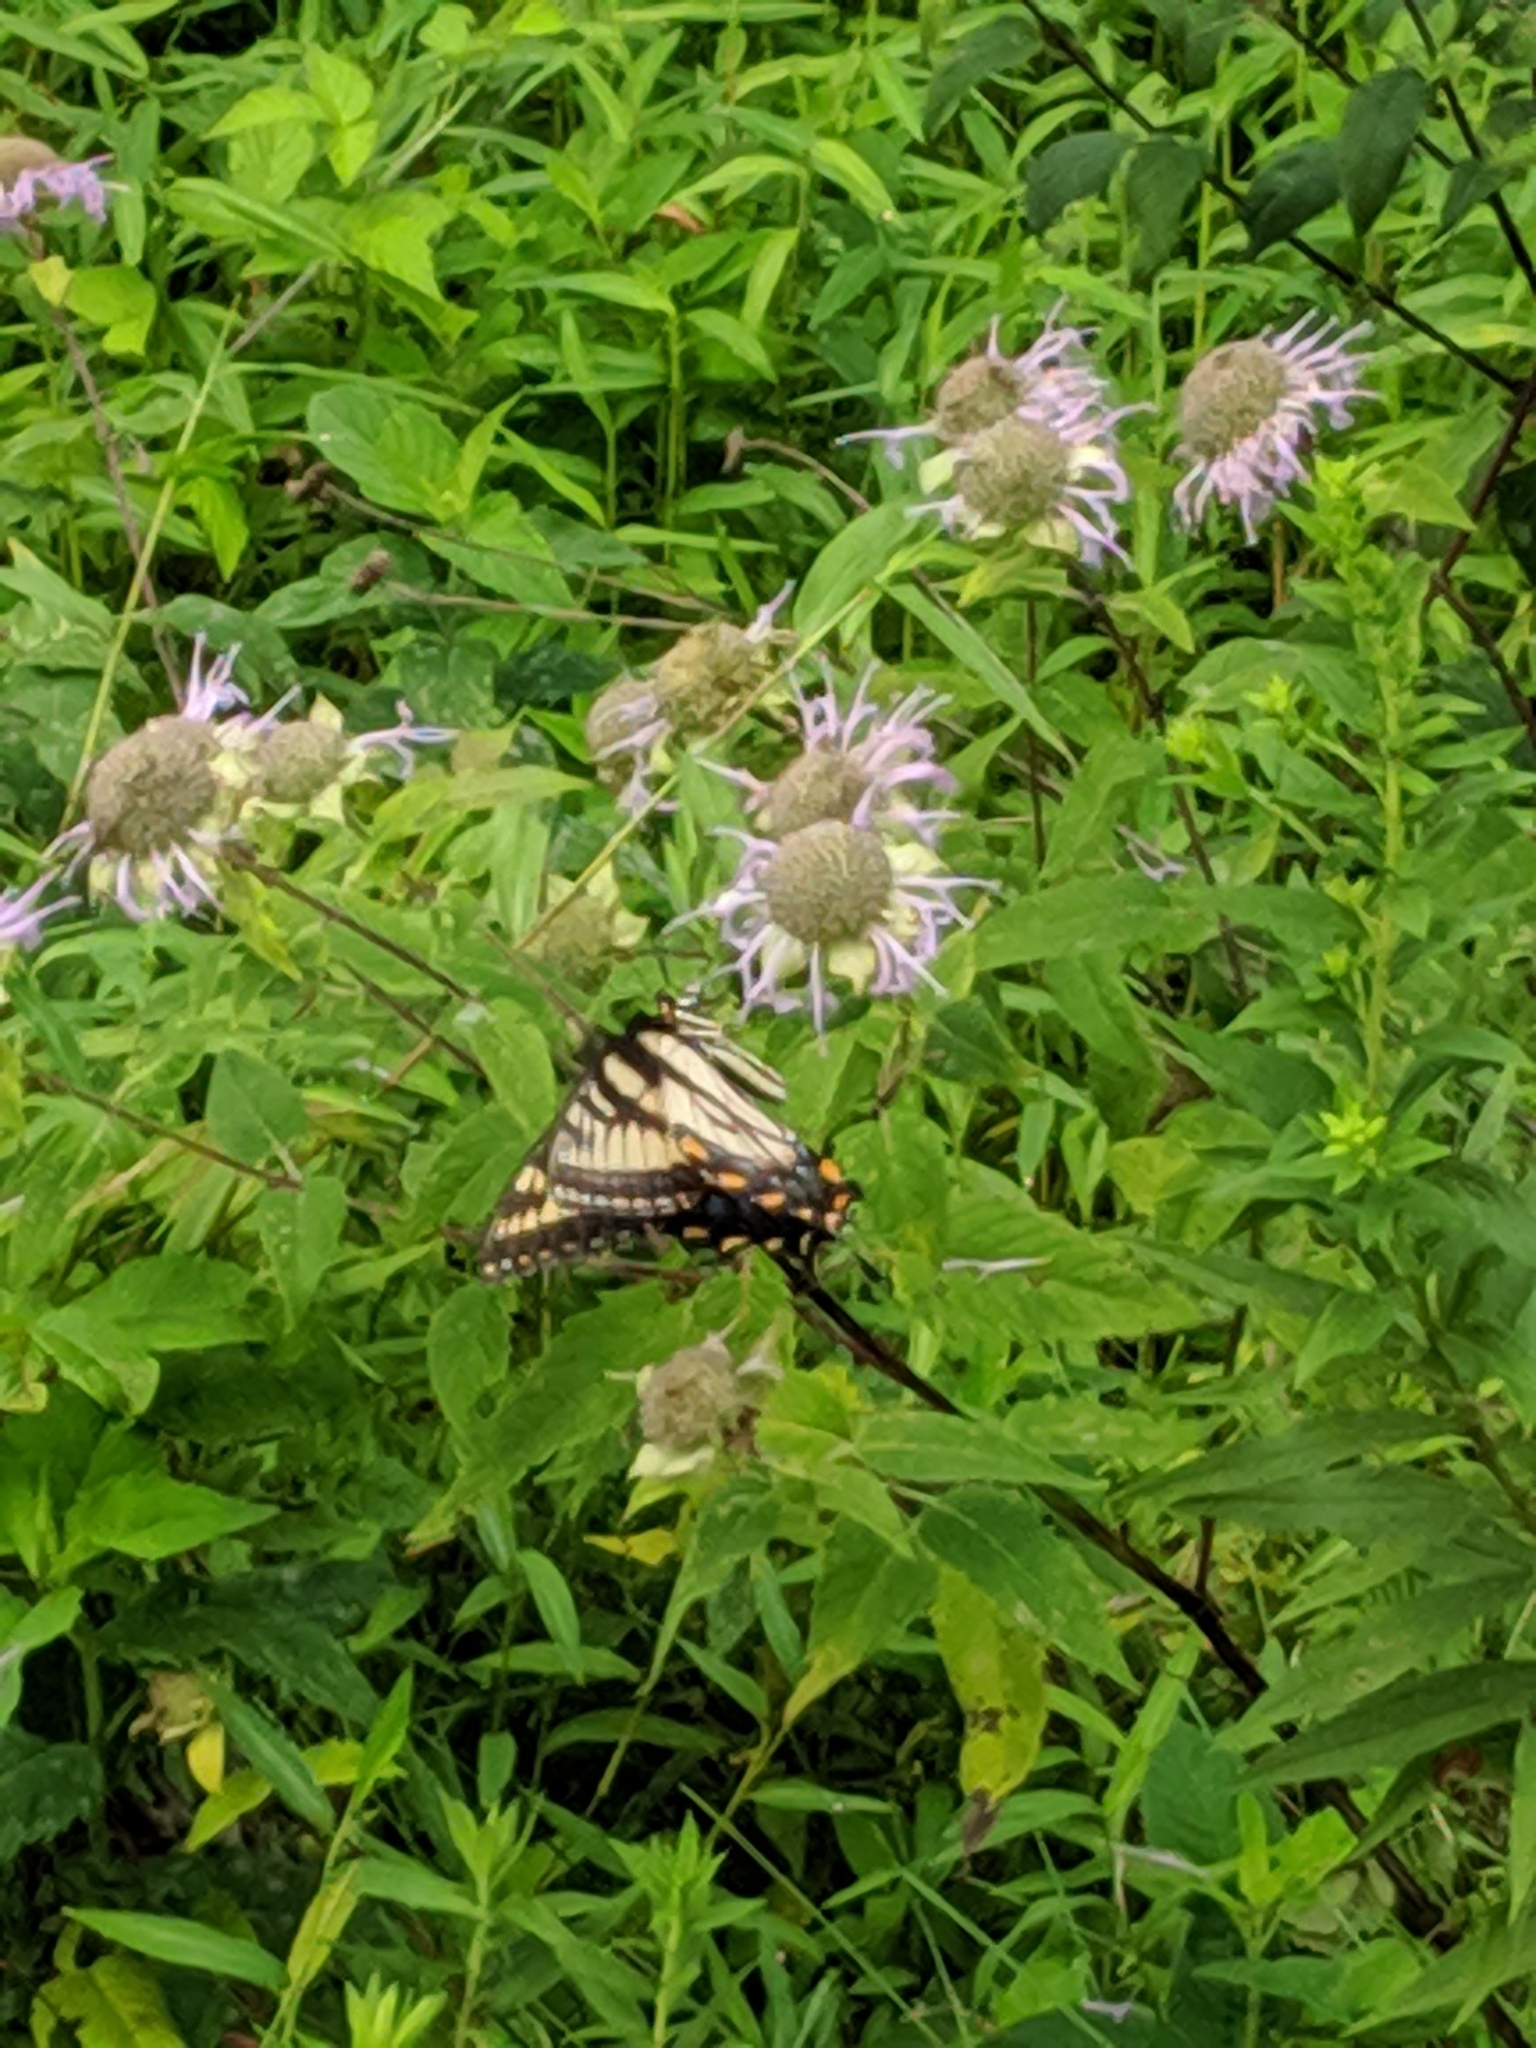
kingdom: Animalia
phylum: Arthropoda
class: Insecta
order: Lepidoptera
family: Papilionidae
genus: Papilio
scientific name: Papilio glaucus
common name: Tiger swallowtail
